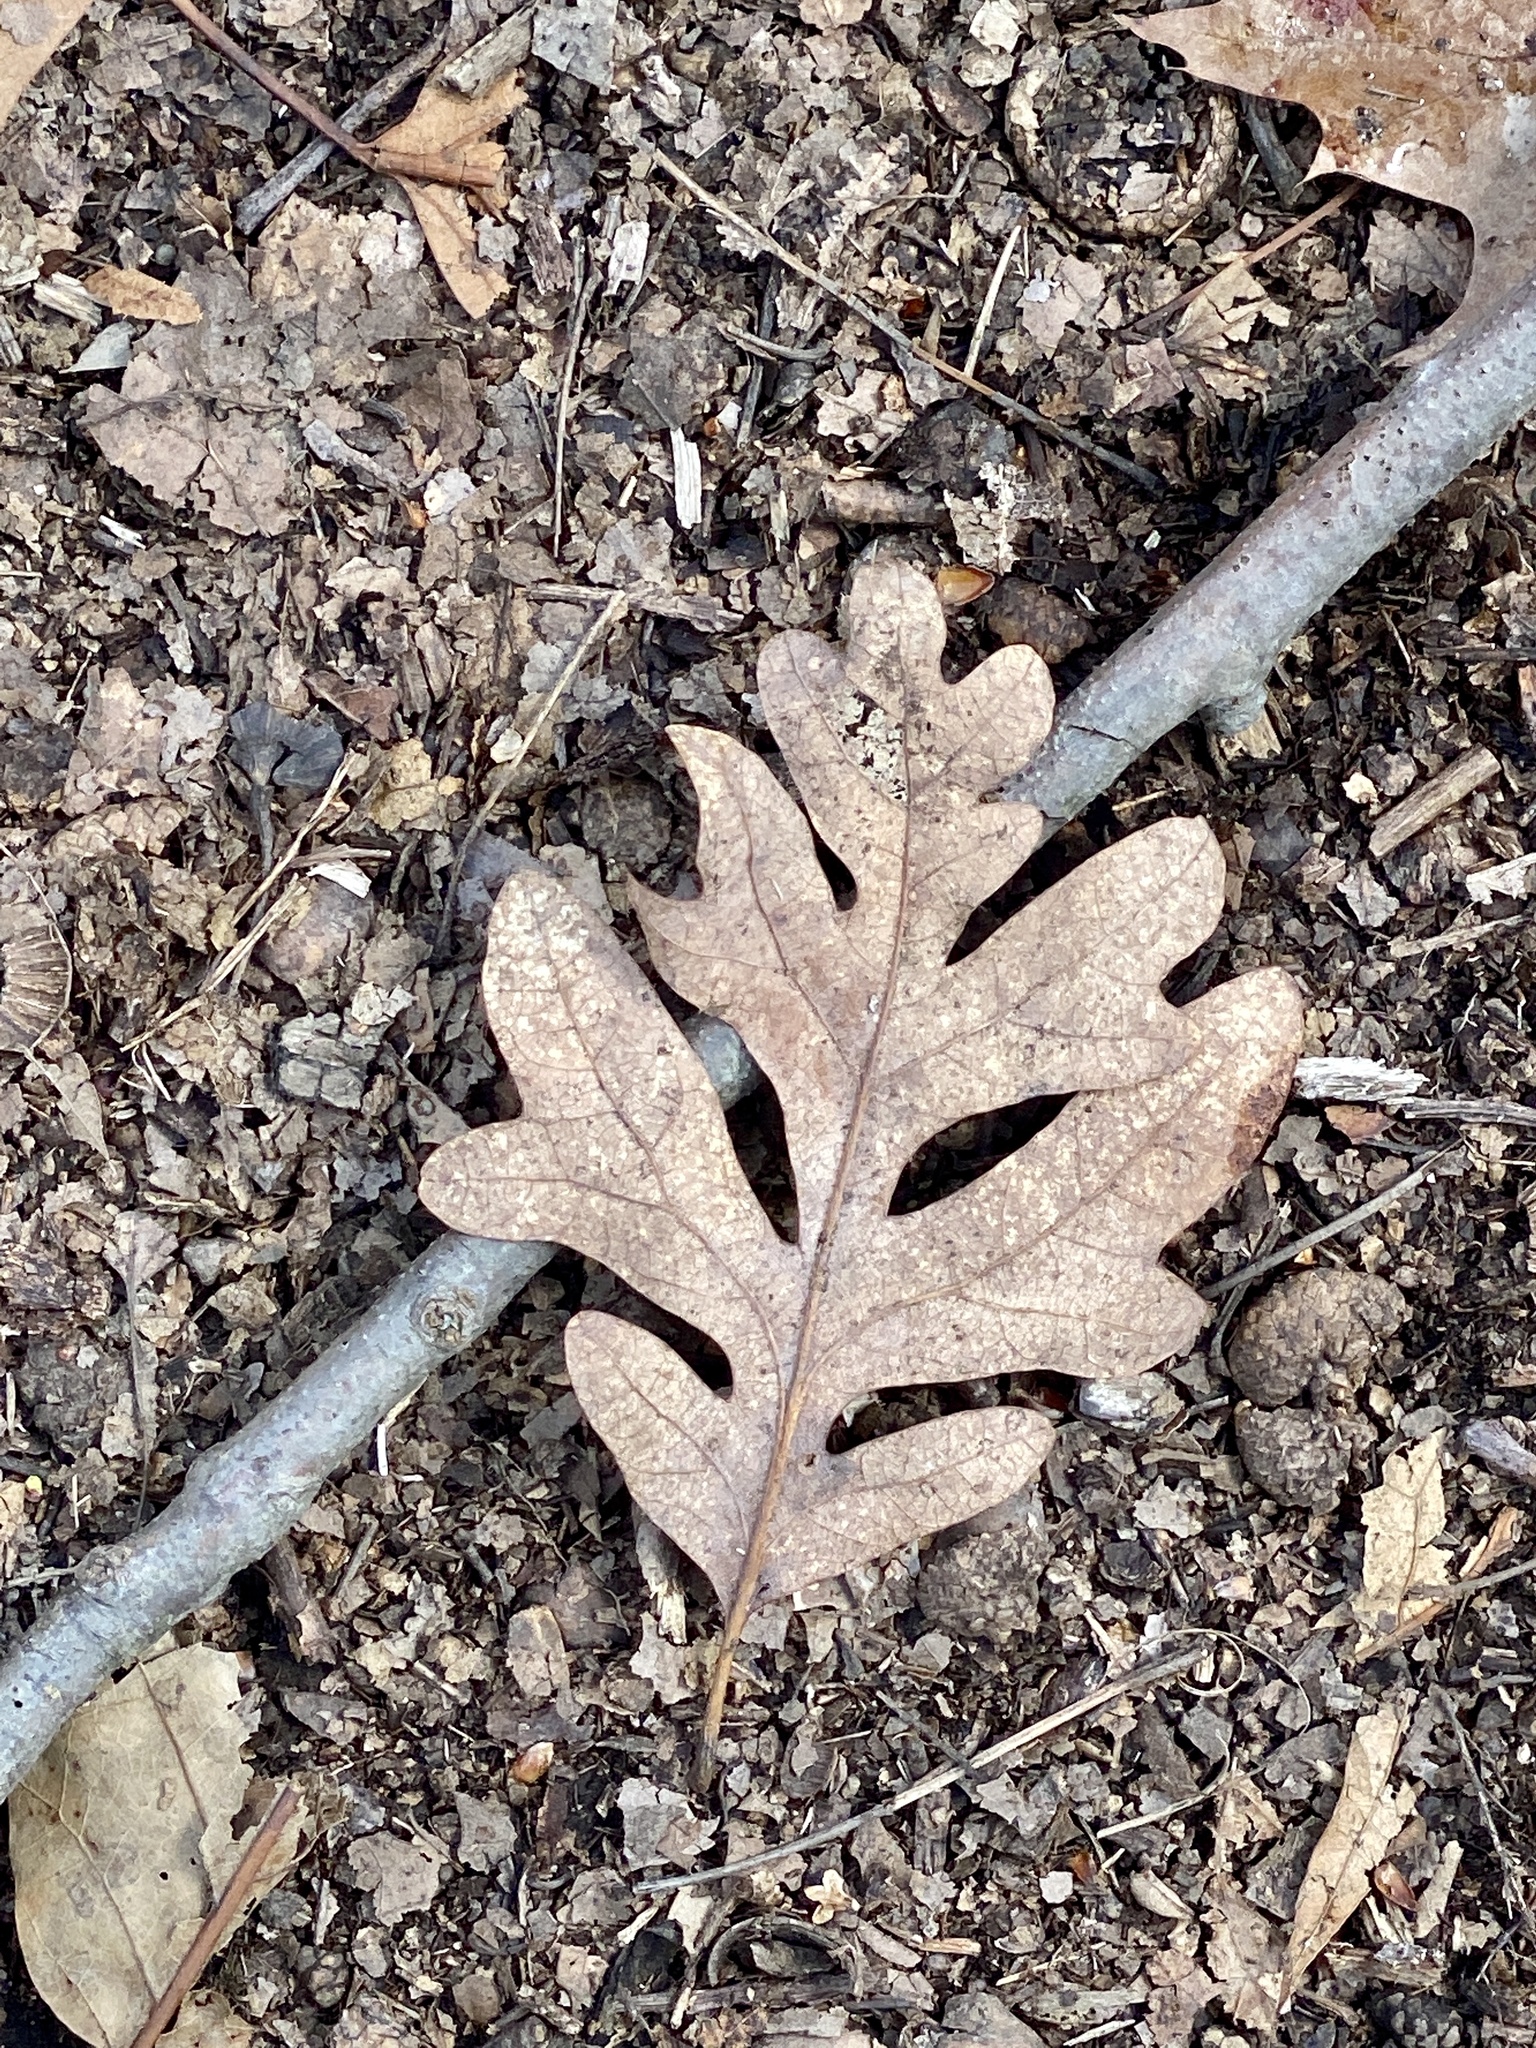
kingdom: Plantae
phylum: Tracheophyta
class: Magnoliopsida
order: Fagales
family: Fagaceae
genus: Quercus
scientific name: Quercus alba
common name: White oak
